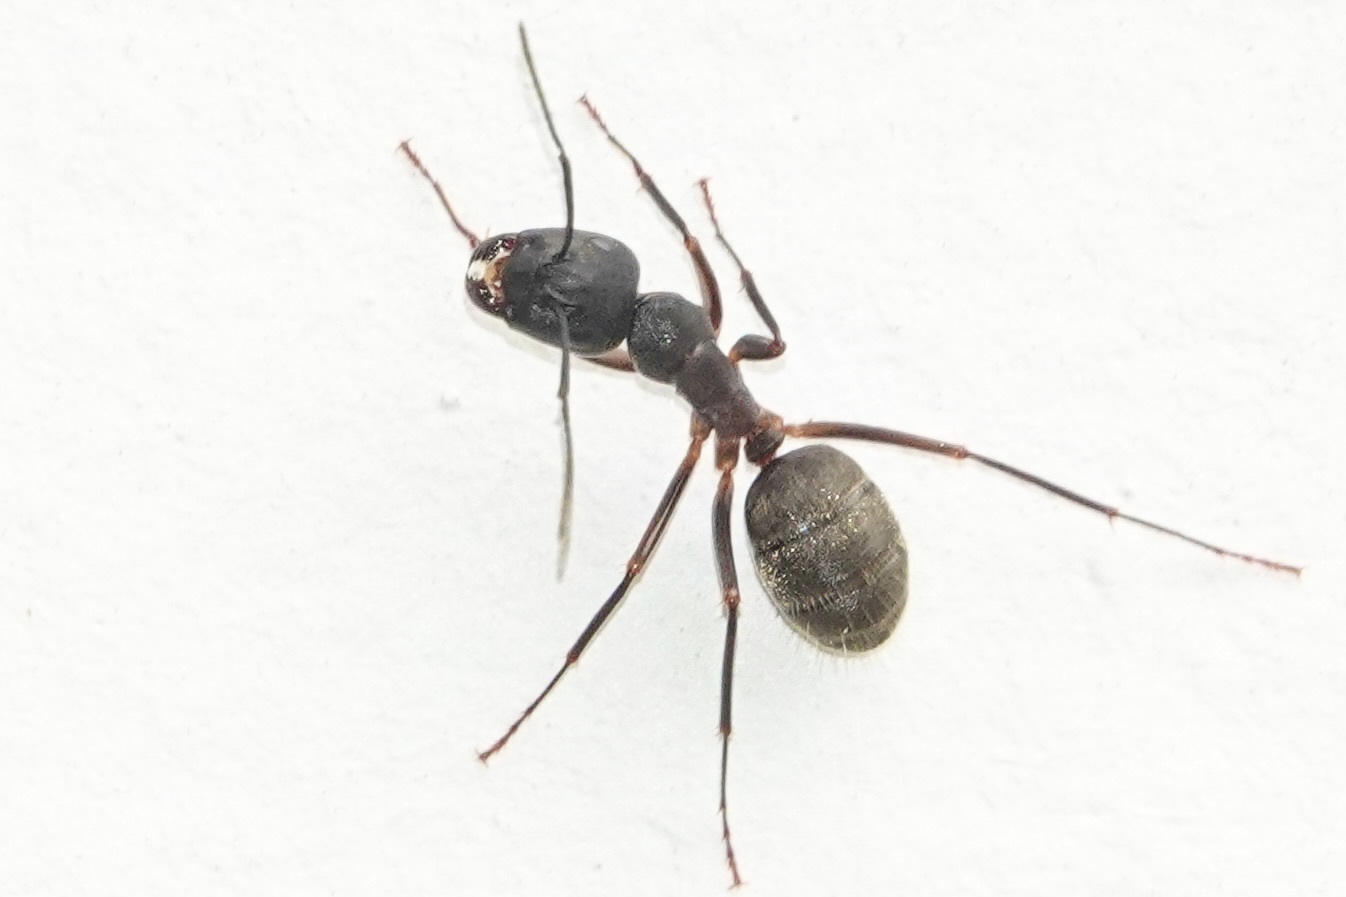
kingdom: Animalia
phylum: Arthropoda
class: Insecta
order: Hymenoptera
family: Formicidae
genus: Camponotus
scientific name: Camponotus chromaiodes
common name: Red carpenter ant
